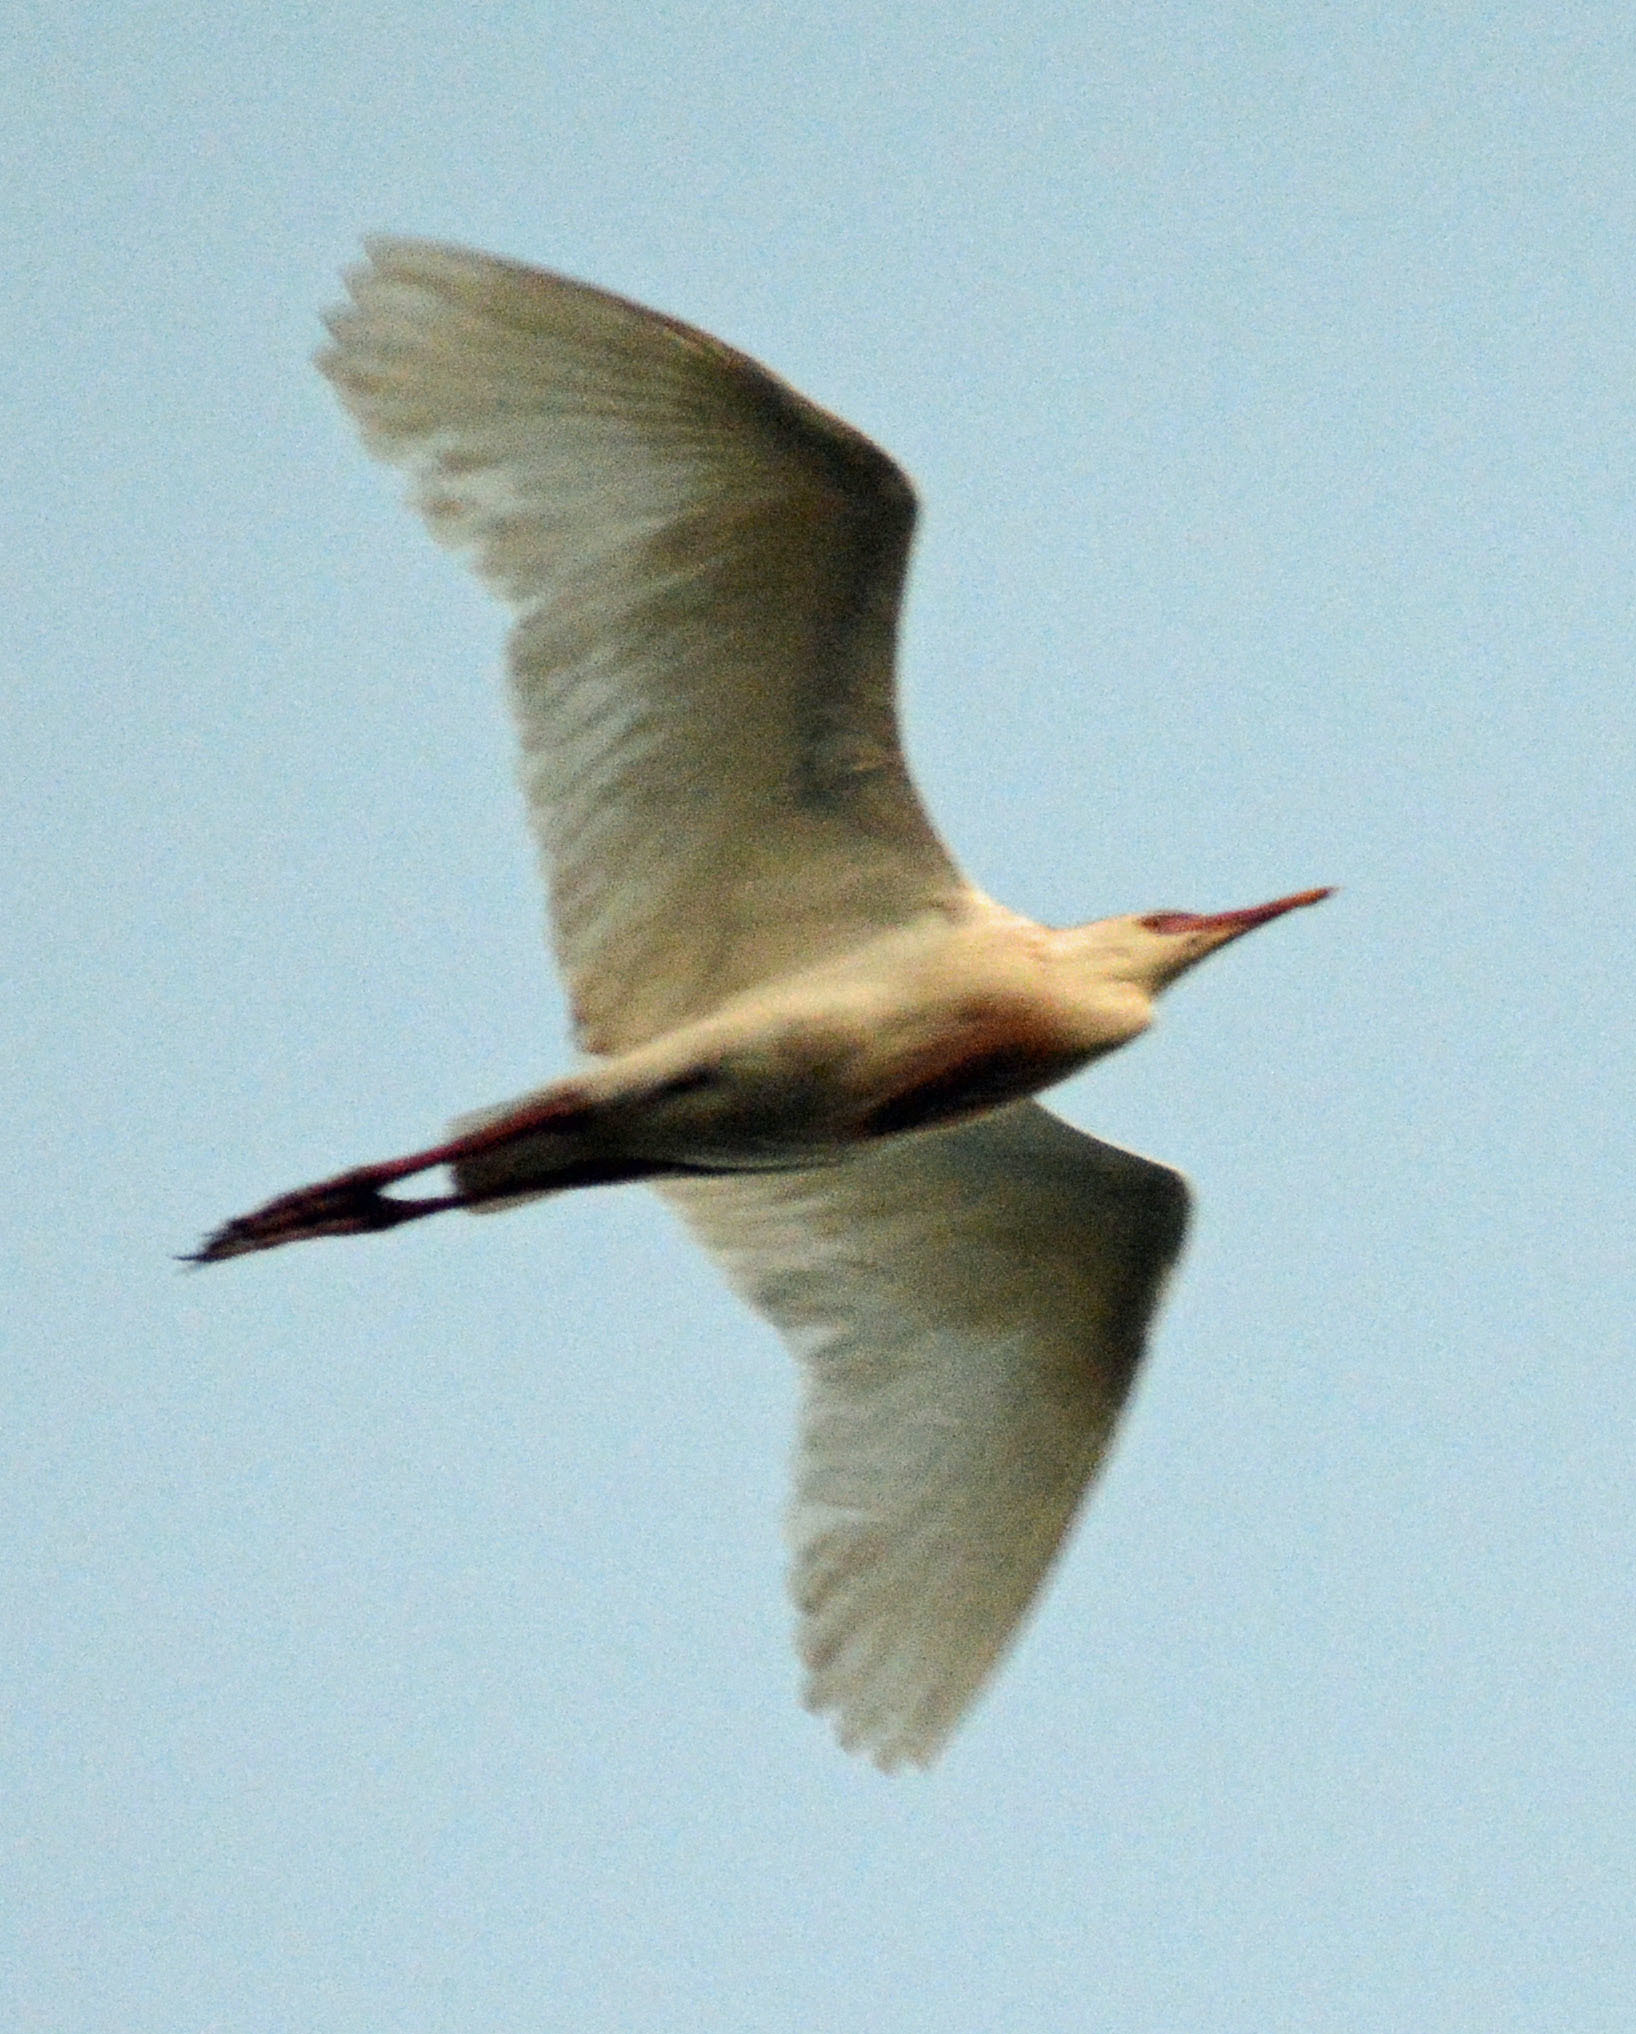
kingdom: Animalia
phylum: Chordata
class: Aves
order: Pelecaniformes
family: Ardeidae
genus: Bubulcus
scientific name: Bubulcus ibis
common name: Cattle egret
